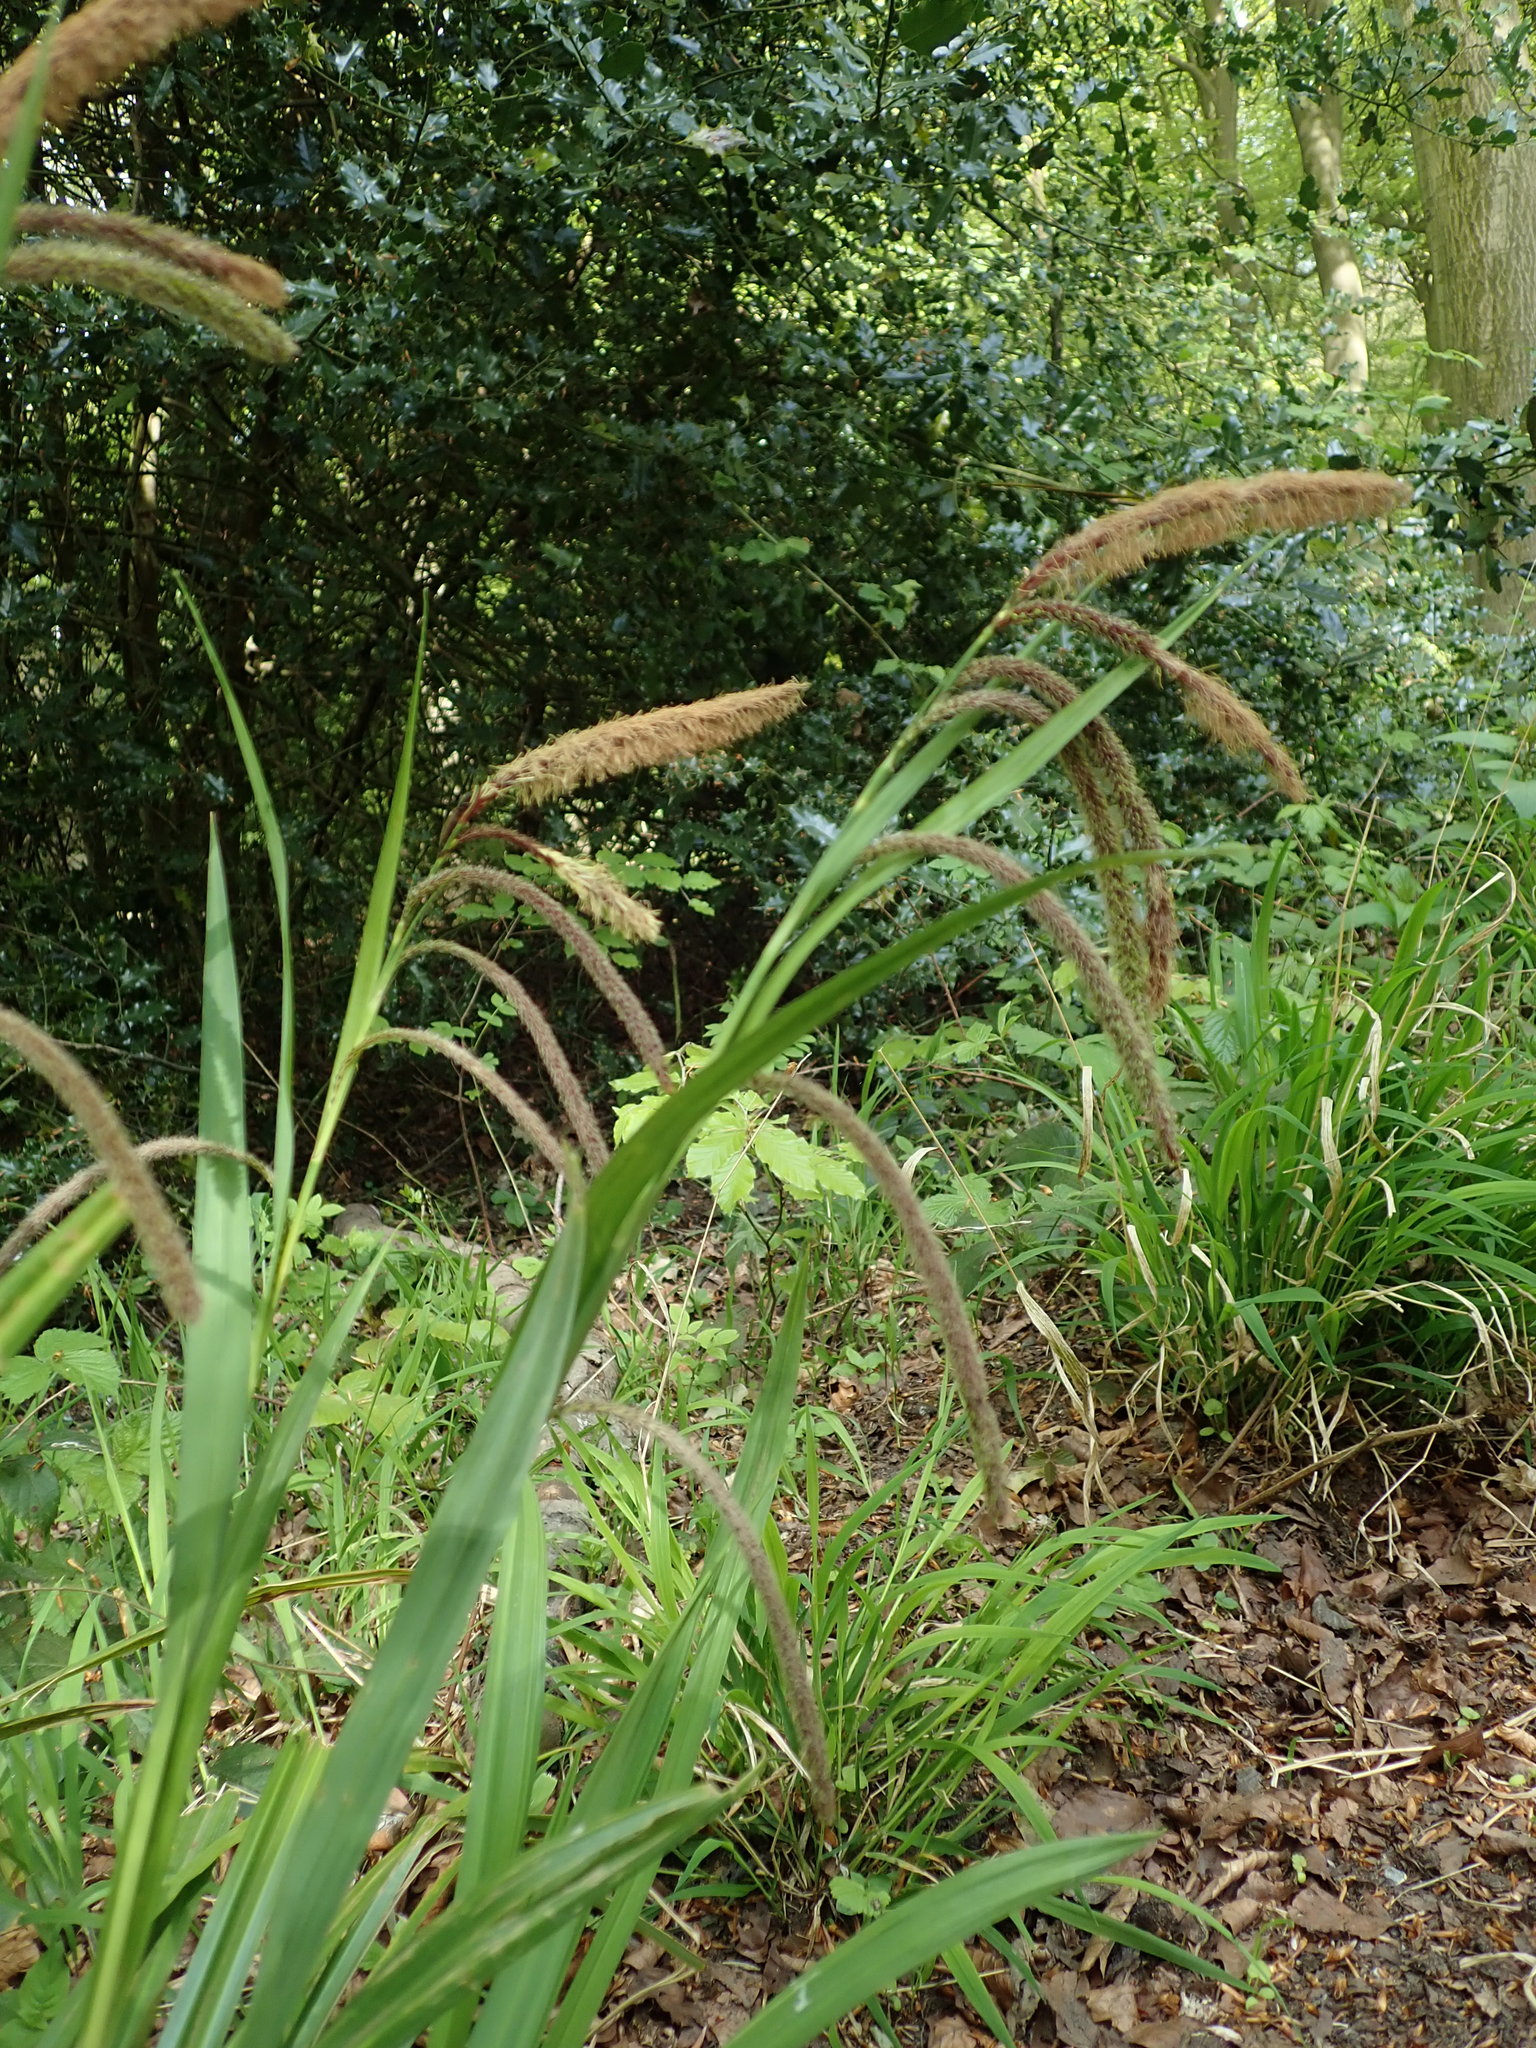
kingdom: Plantae
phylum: Tracheophyta
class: Liliopsida
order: Poales
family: Cyperaceae
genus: Carex
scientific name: Carex pendula
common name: Pendulous sedge
